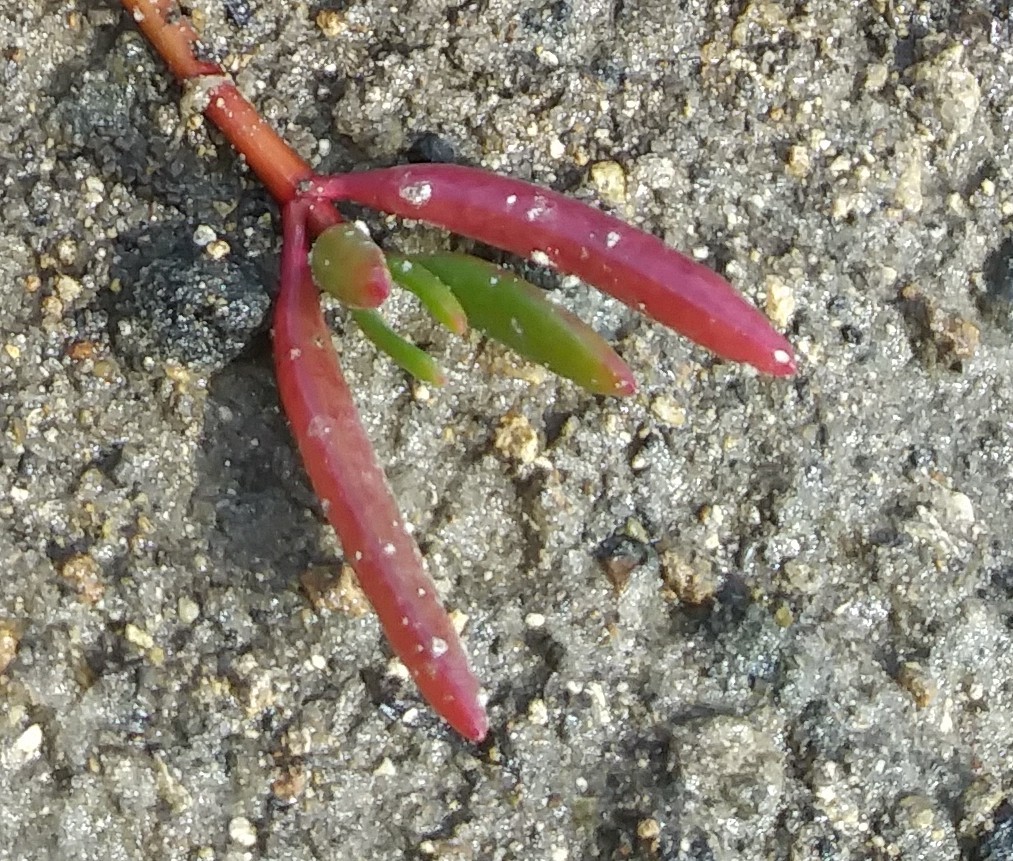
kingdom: Plantae
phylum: Tracheophyta
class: Magnoliopsida
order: Caryophyllales
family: Aizoaceae
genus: Sesuvium
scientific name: Sesuvium portulacastrum
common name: Sea-purslane
